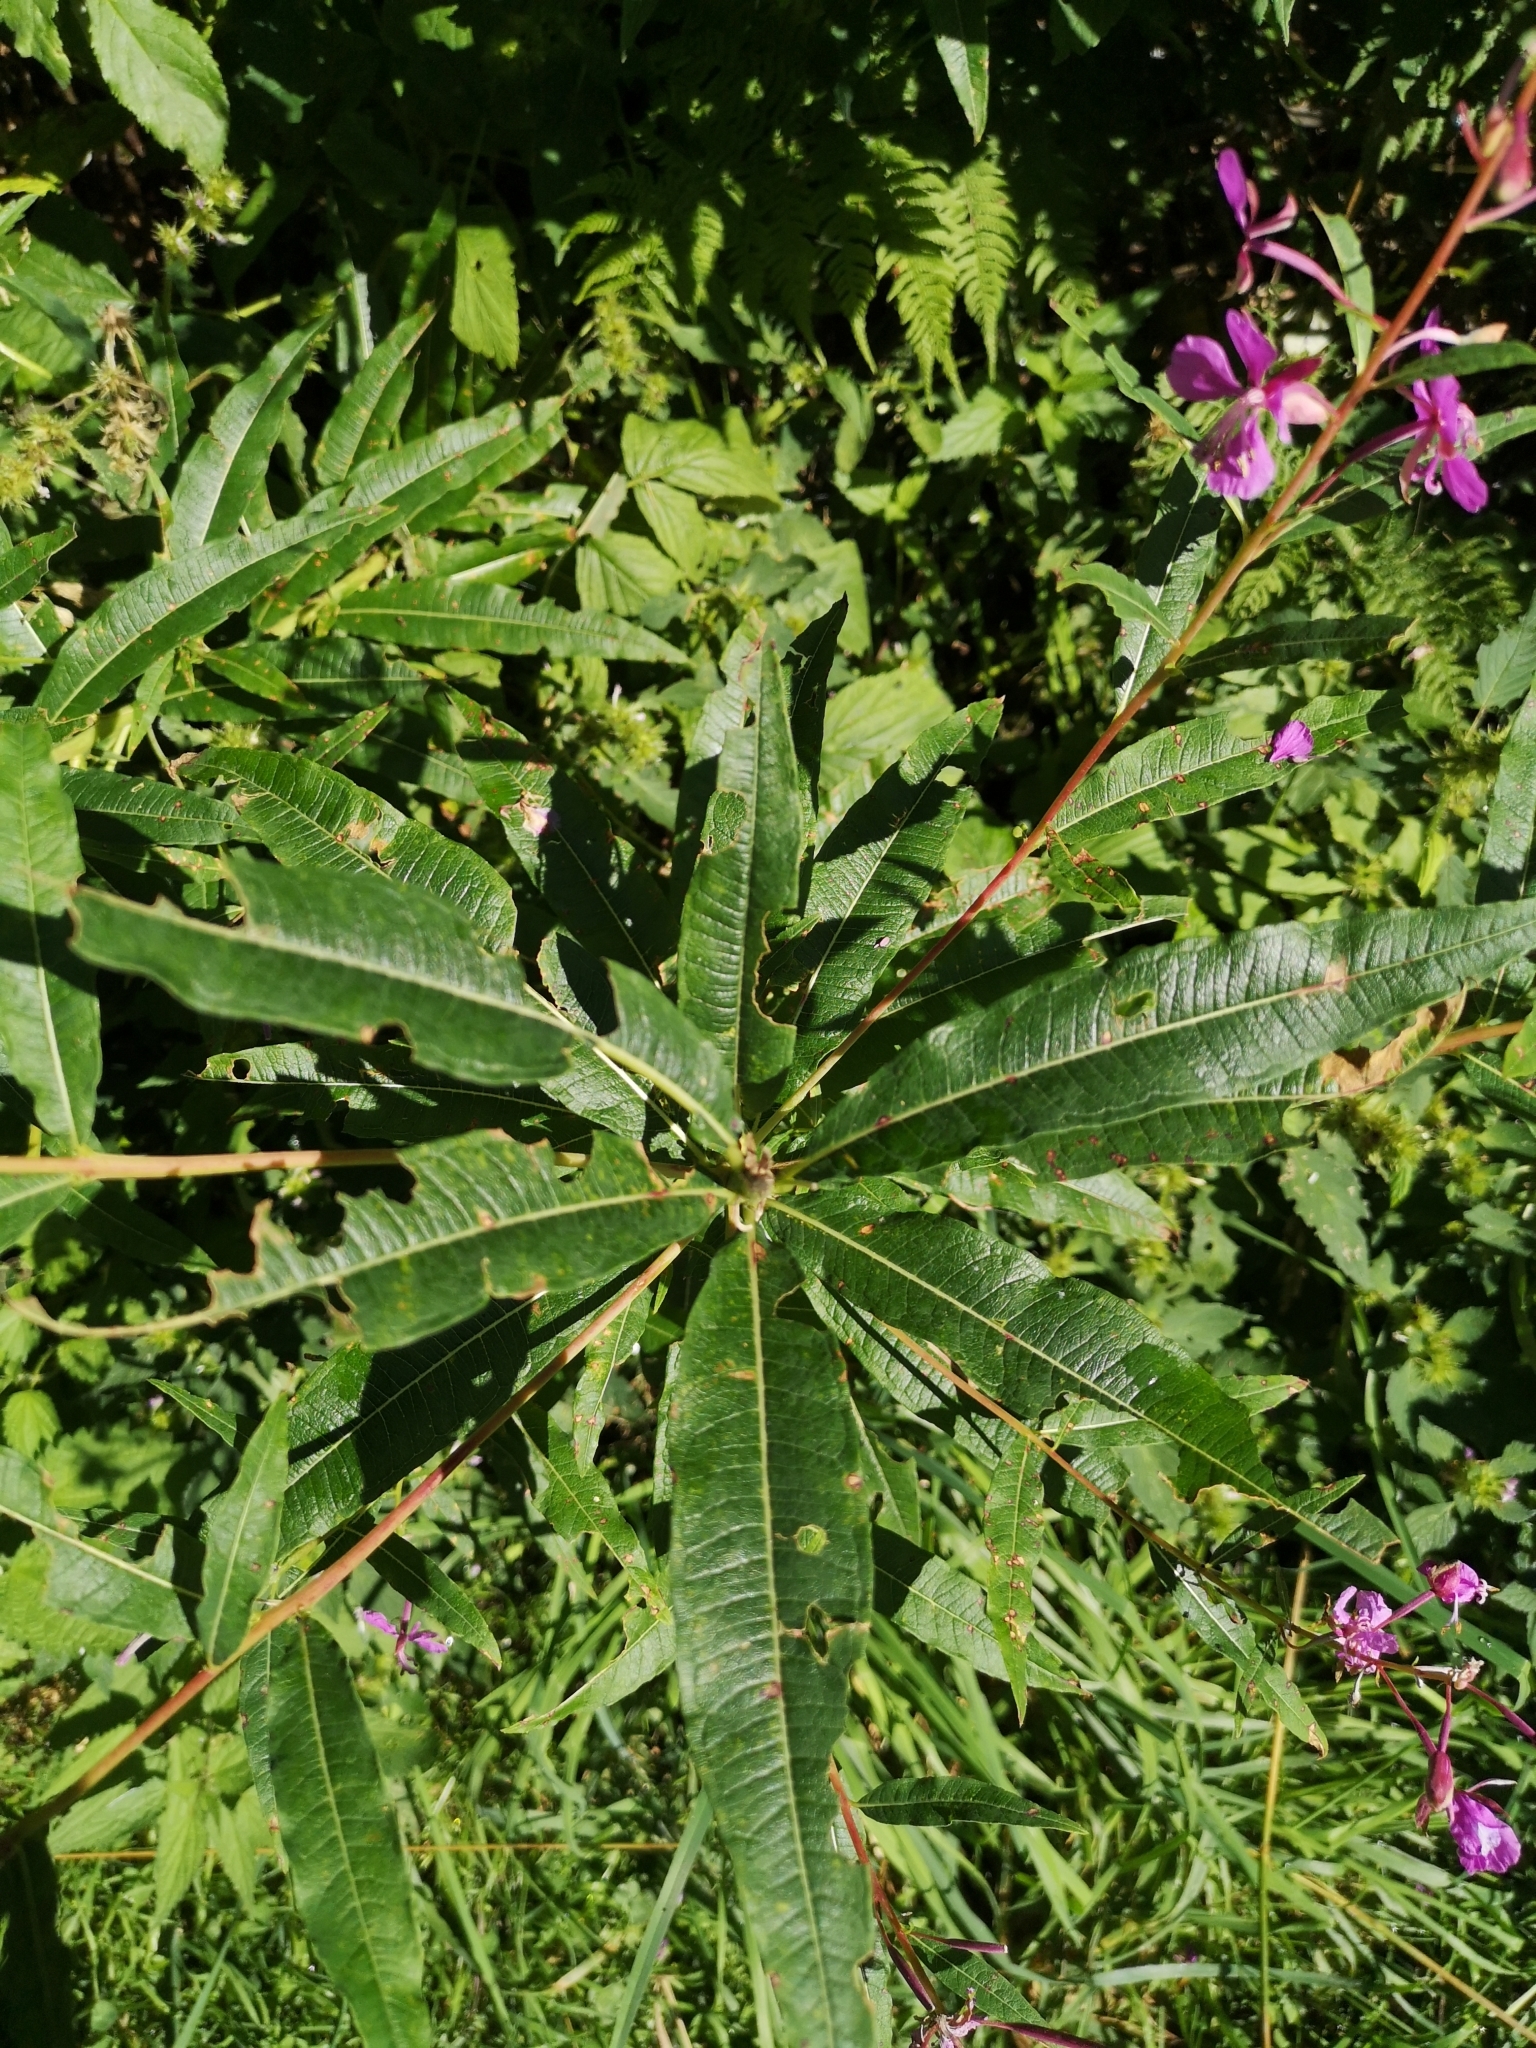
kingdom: Plantae
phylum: Tracheophyta
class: Magnoliopsida
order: Myrtales
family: Onagraceae
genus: Chamaenerion
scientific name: Chamaenerion angustifolium
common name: Fireweed
